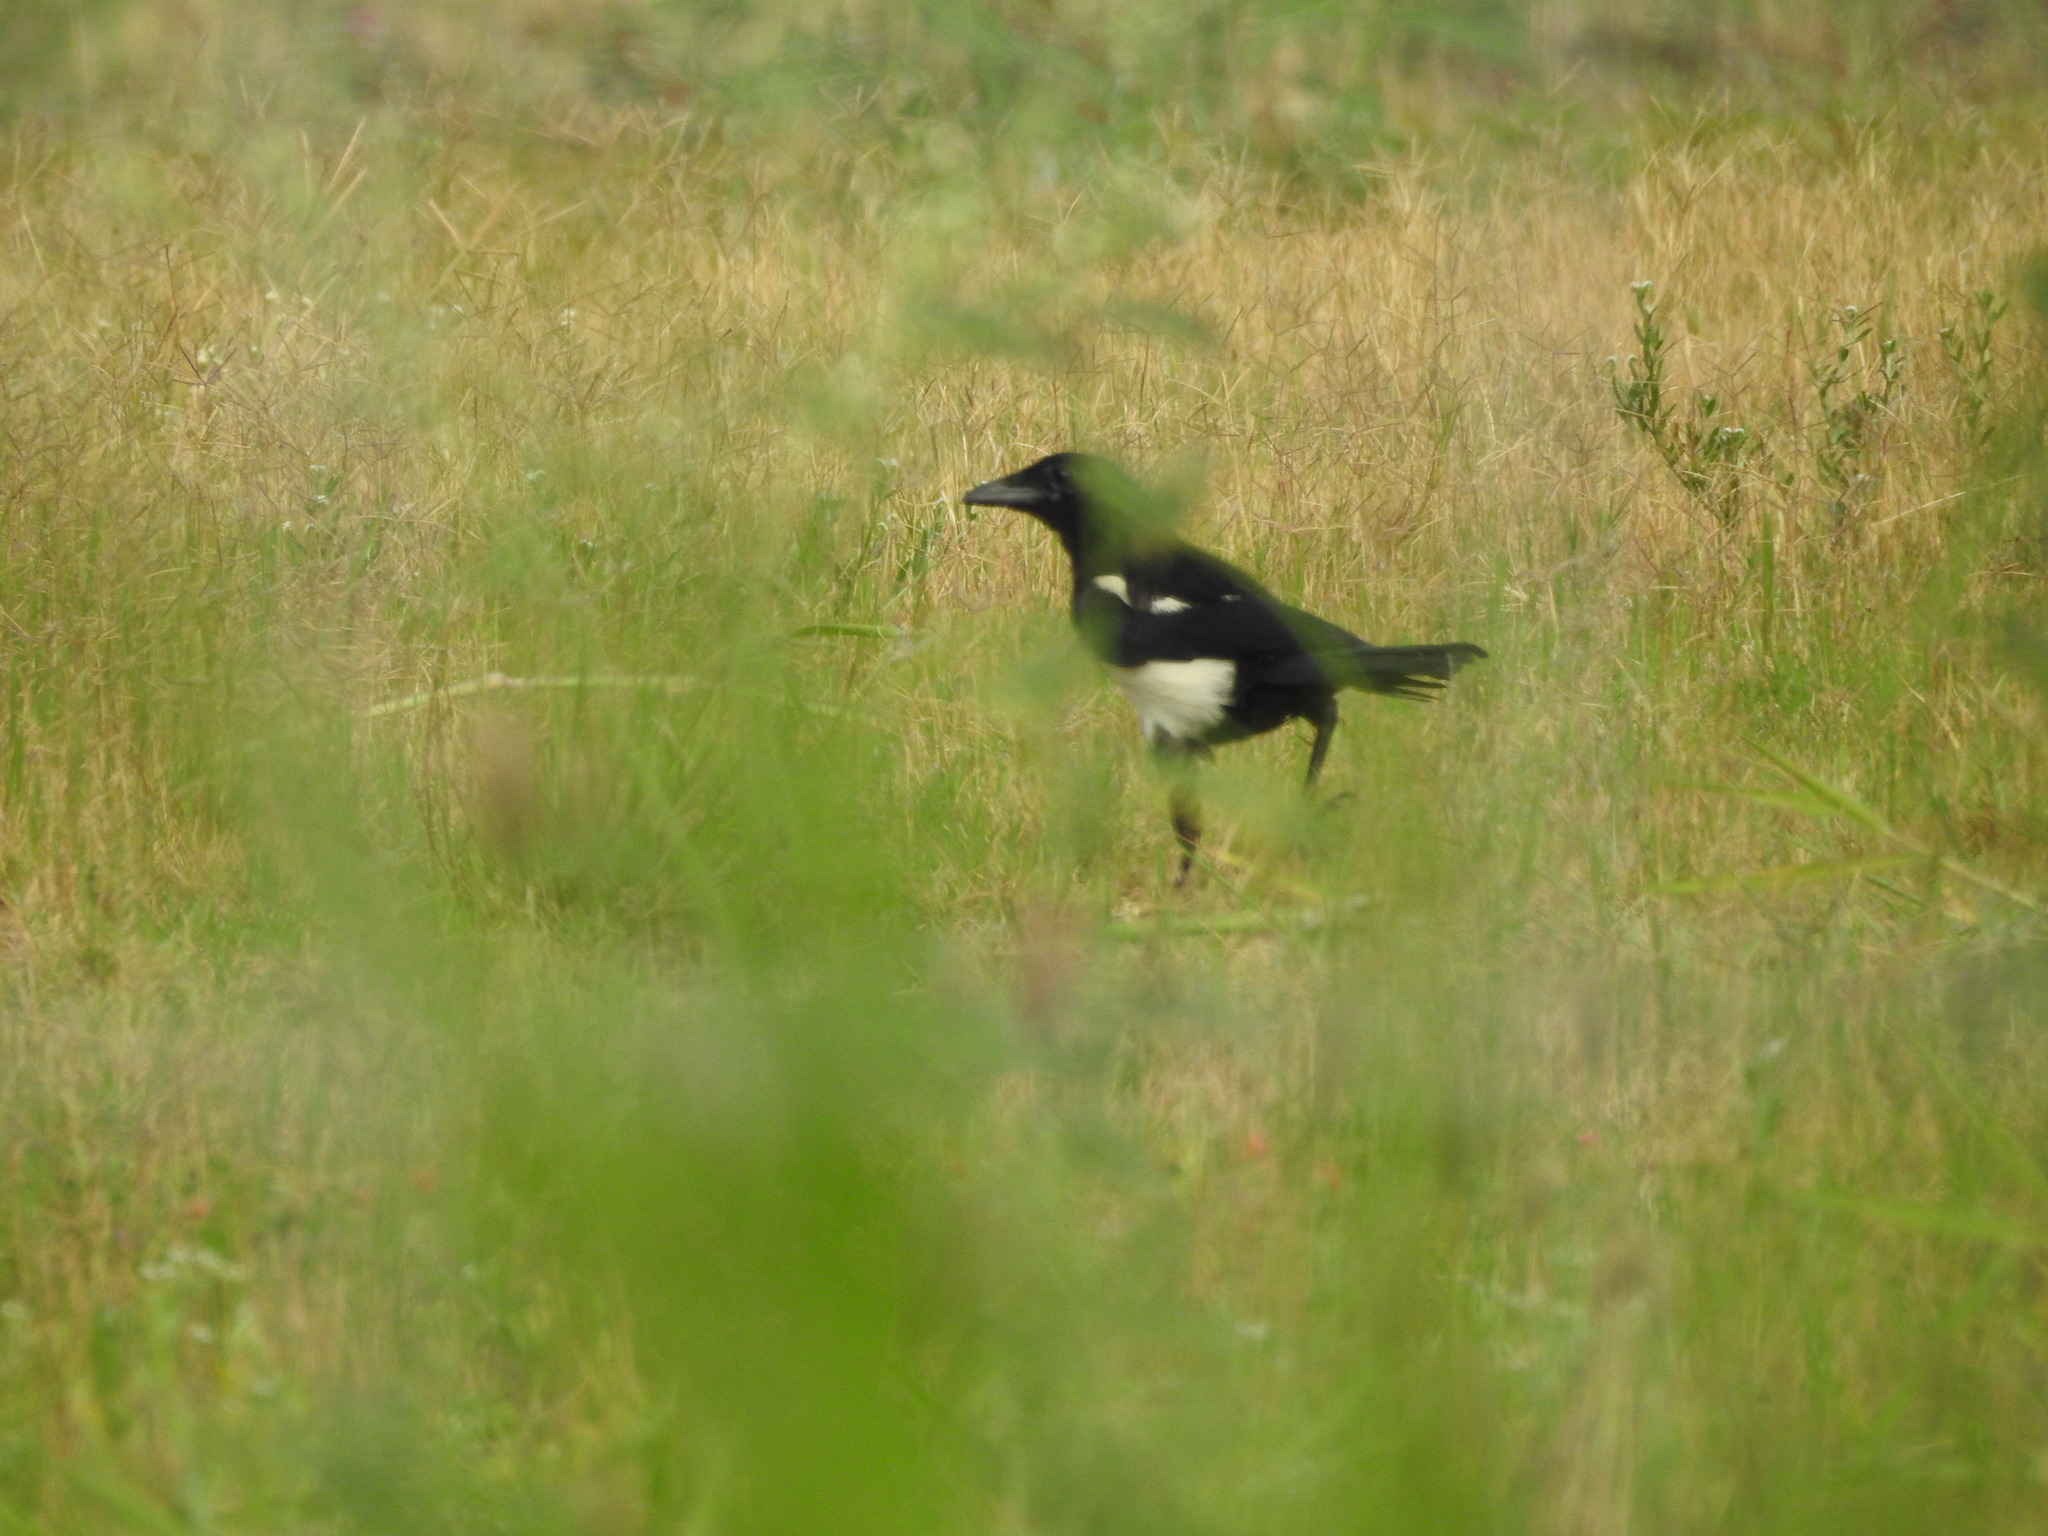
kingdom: Animalia
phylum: Chordata
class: Aves
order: Passeriformes
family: Corvidae
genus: Pica
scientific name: Pica serica
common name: Oriental magpie
